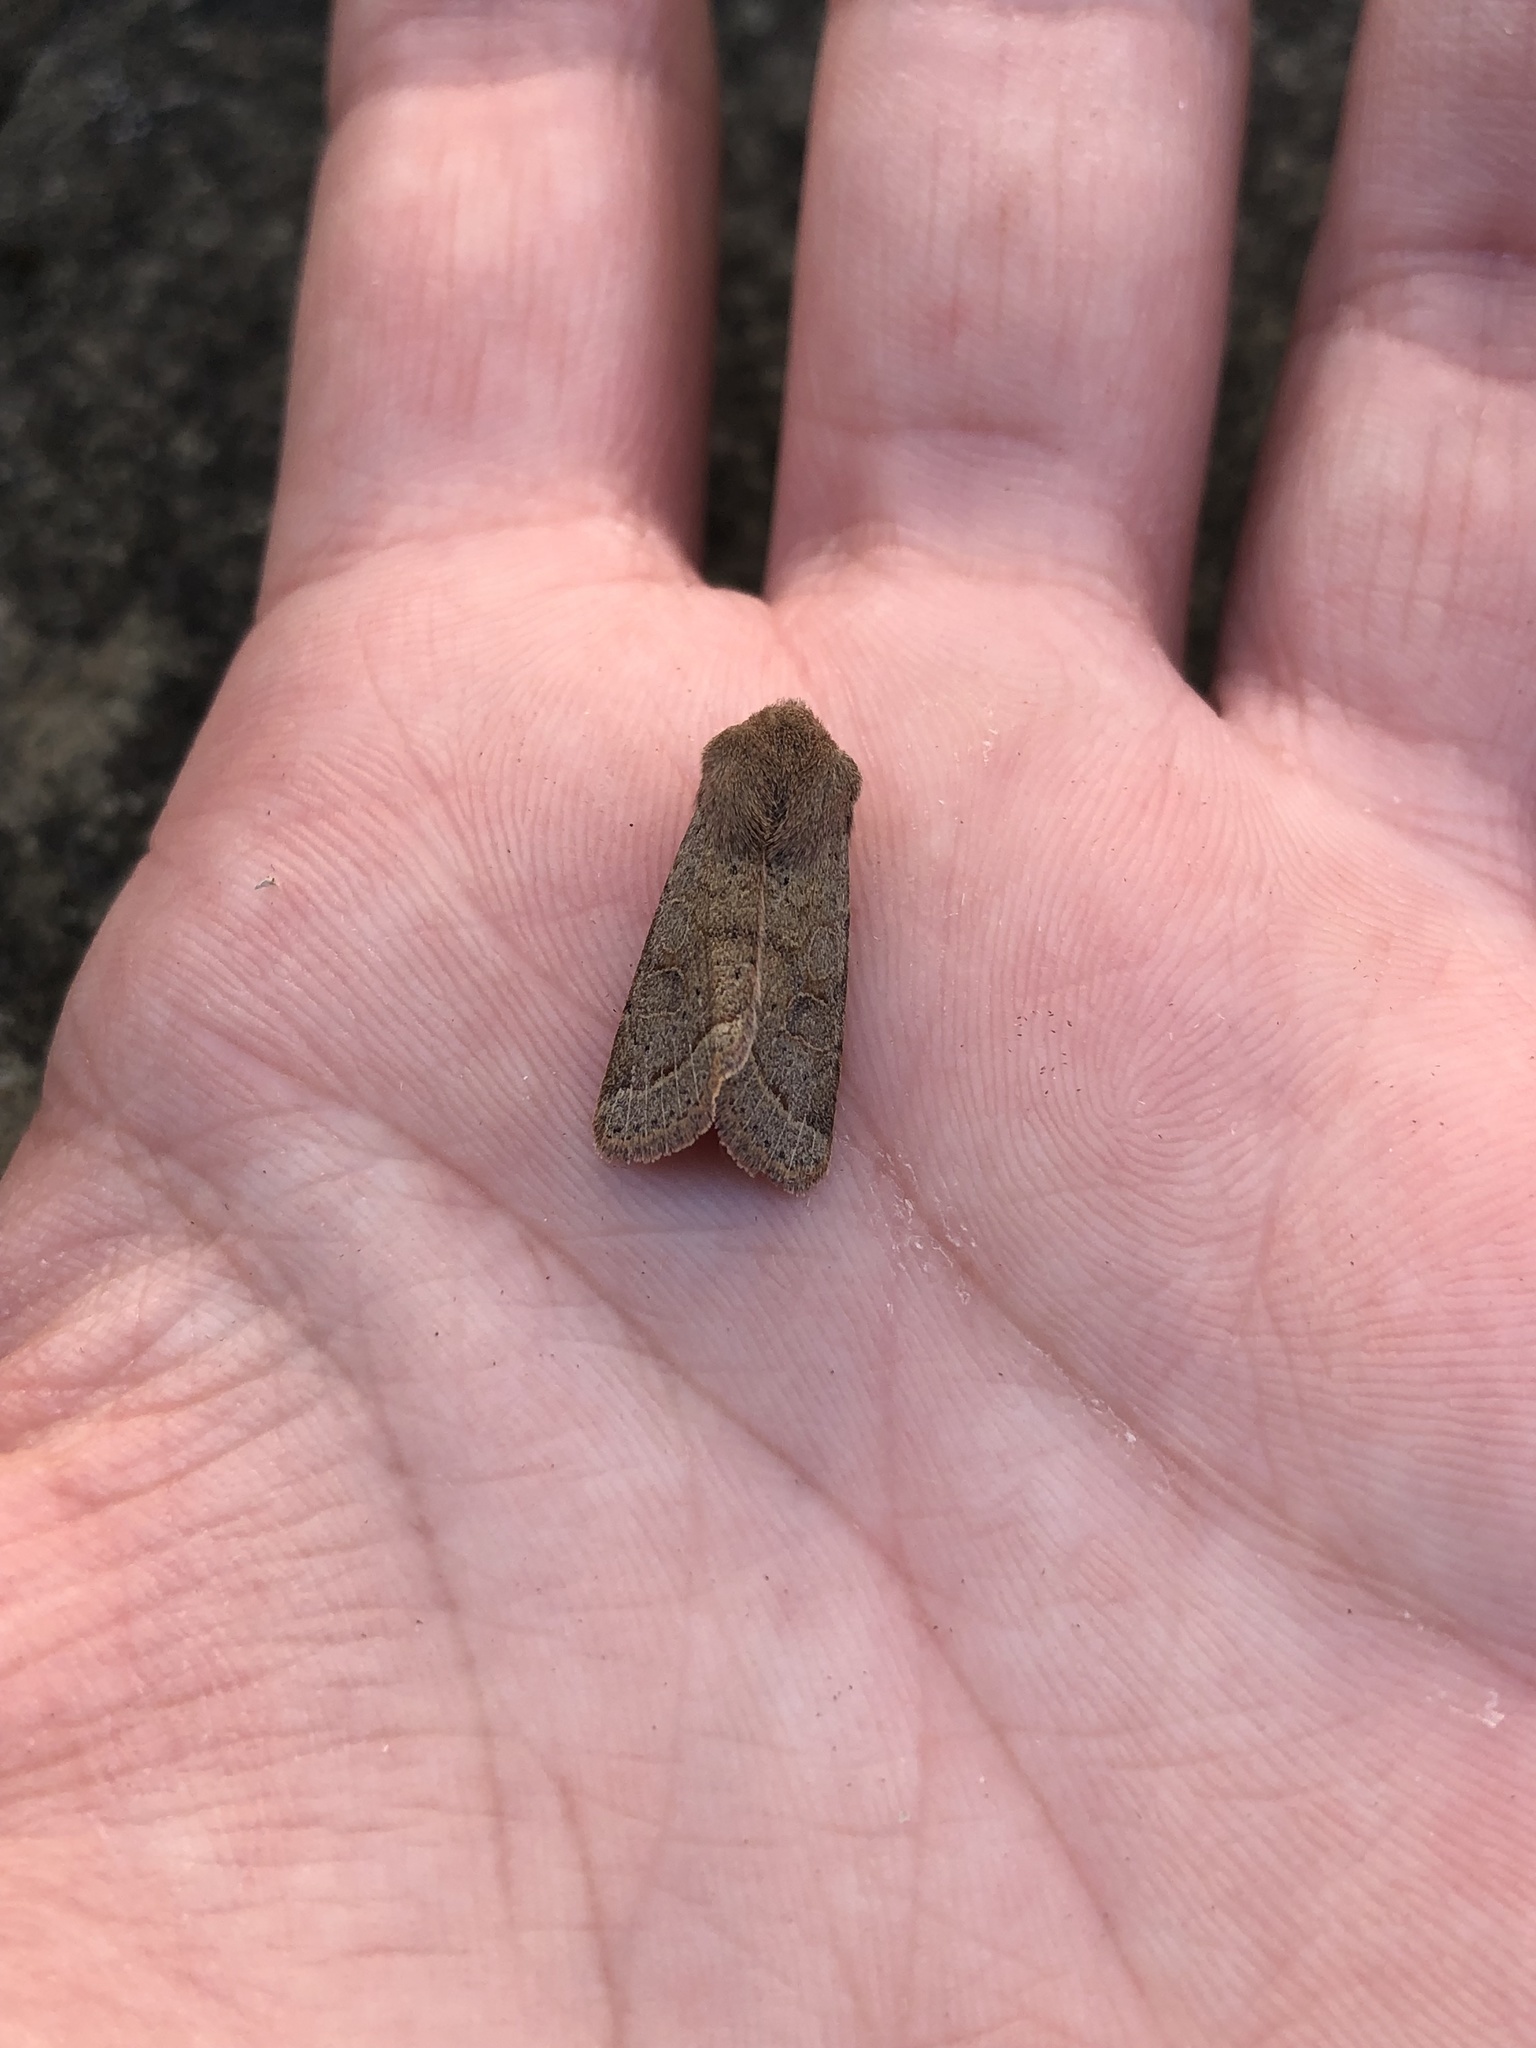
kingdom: Animalia
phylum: Arthropoda
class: Insecta
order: Lepidoptera
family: Noctuidae
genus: Orthosia
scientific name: Orthosia cerasi
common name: Common quaker
